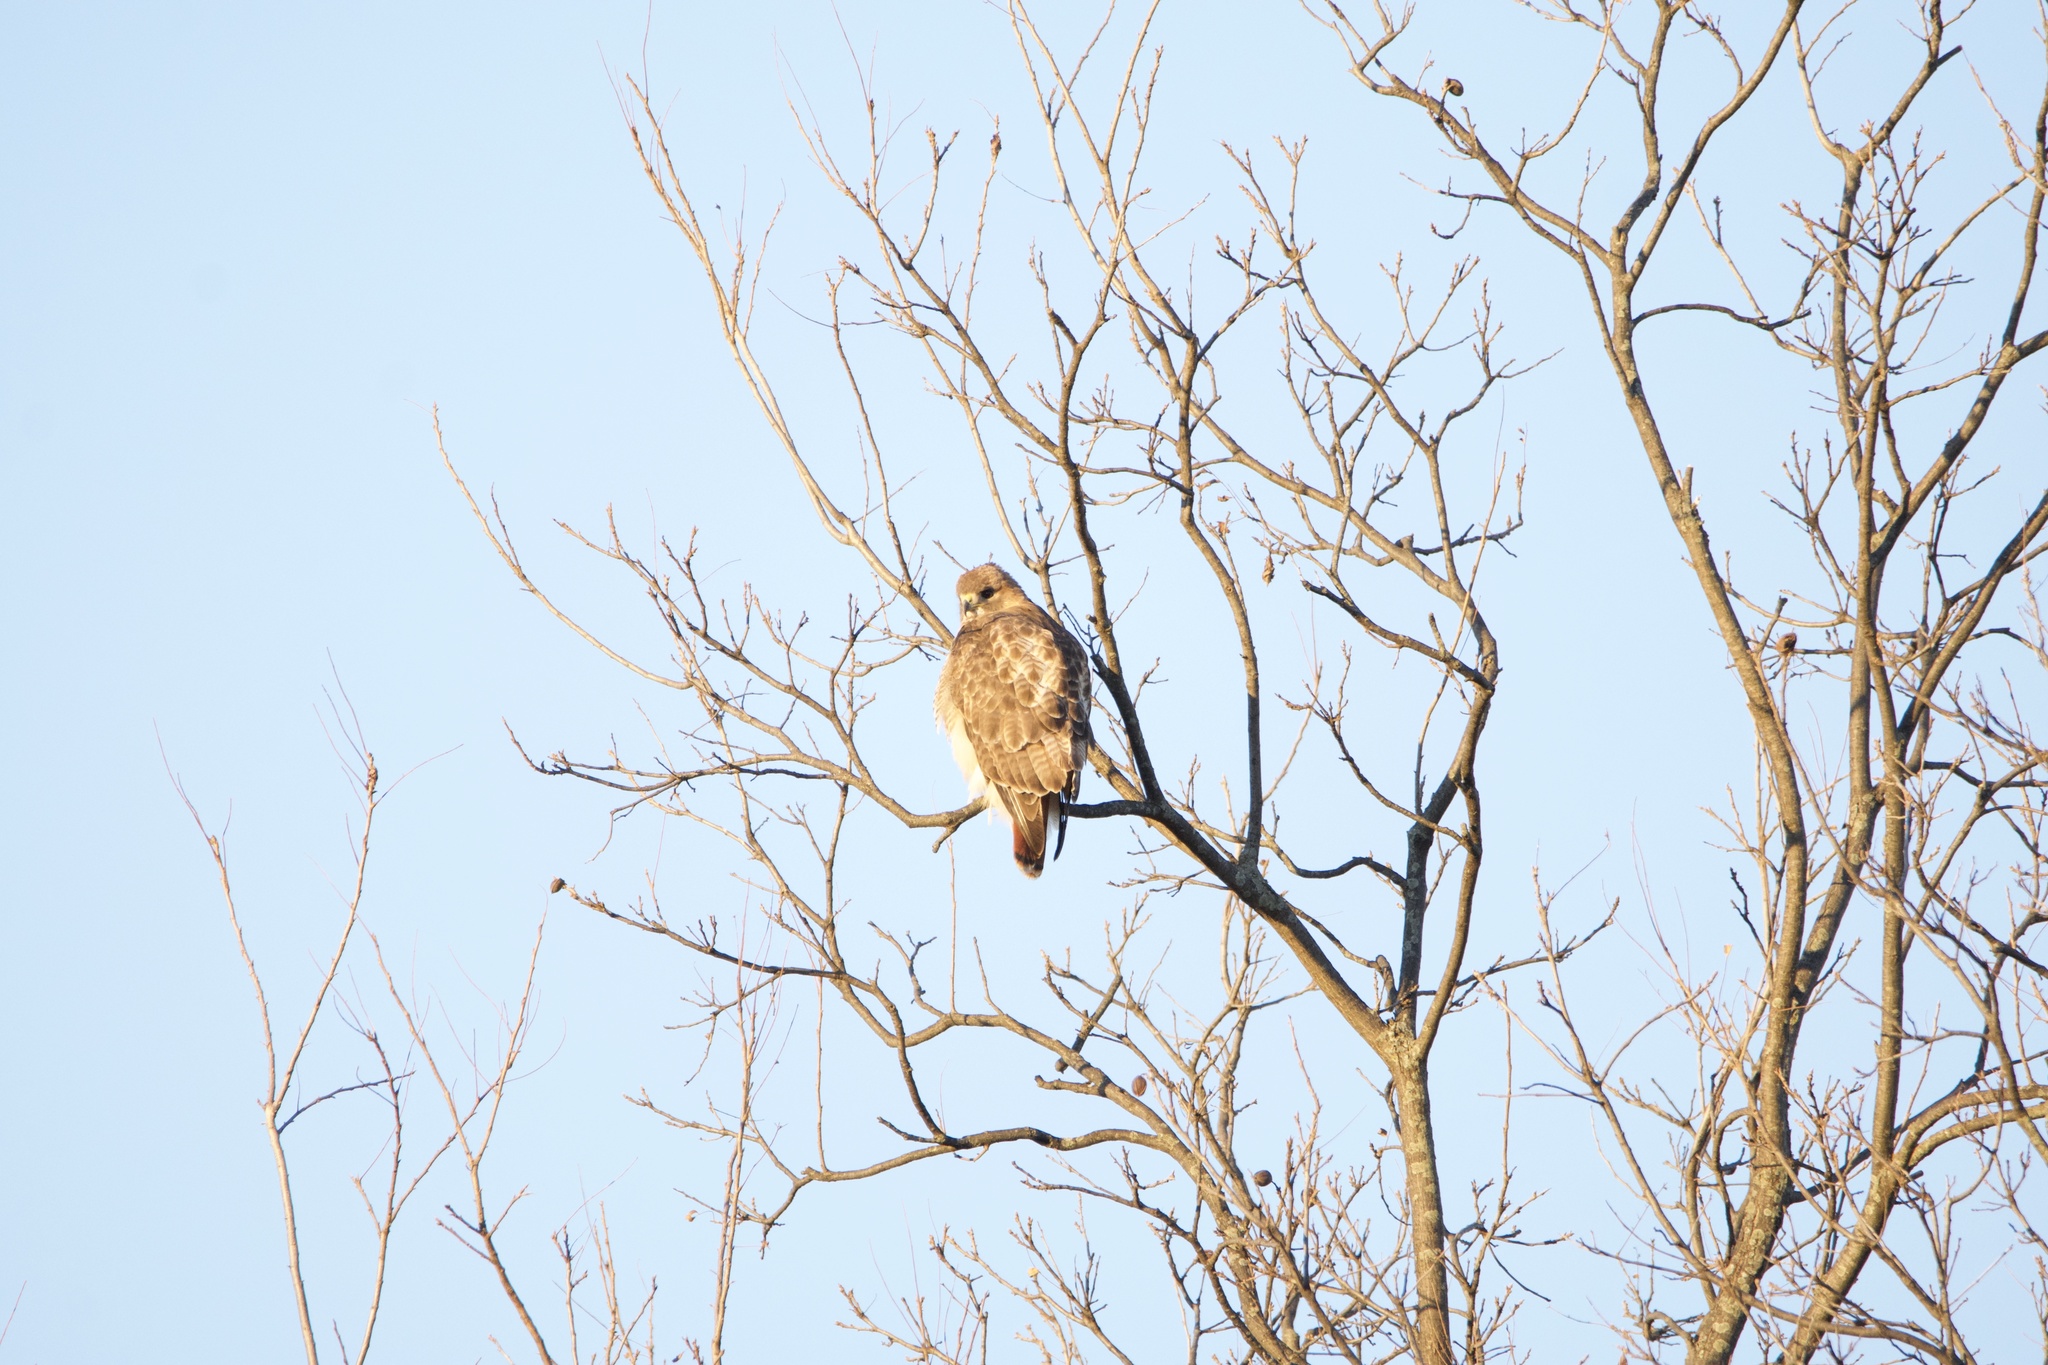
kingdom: Animalia
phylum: Chordata
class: Aves
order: Accipitriformes
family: Accipitridae
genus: Buteo
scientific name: Buteo jamaicensis
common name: Red-tailed hawk
